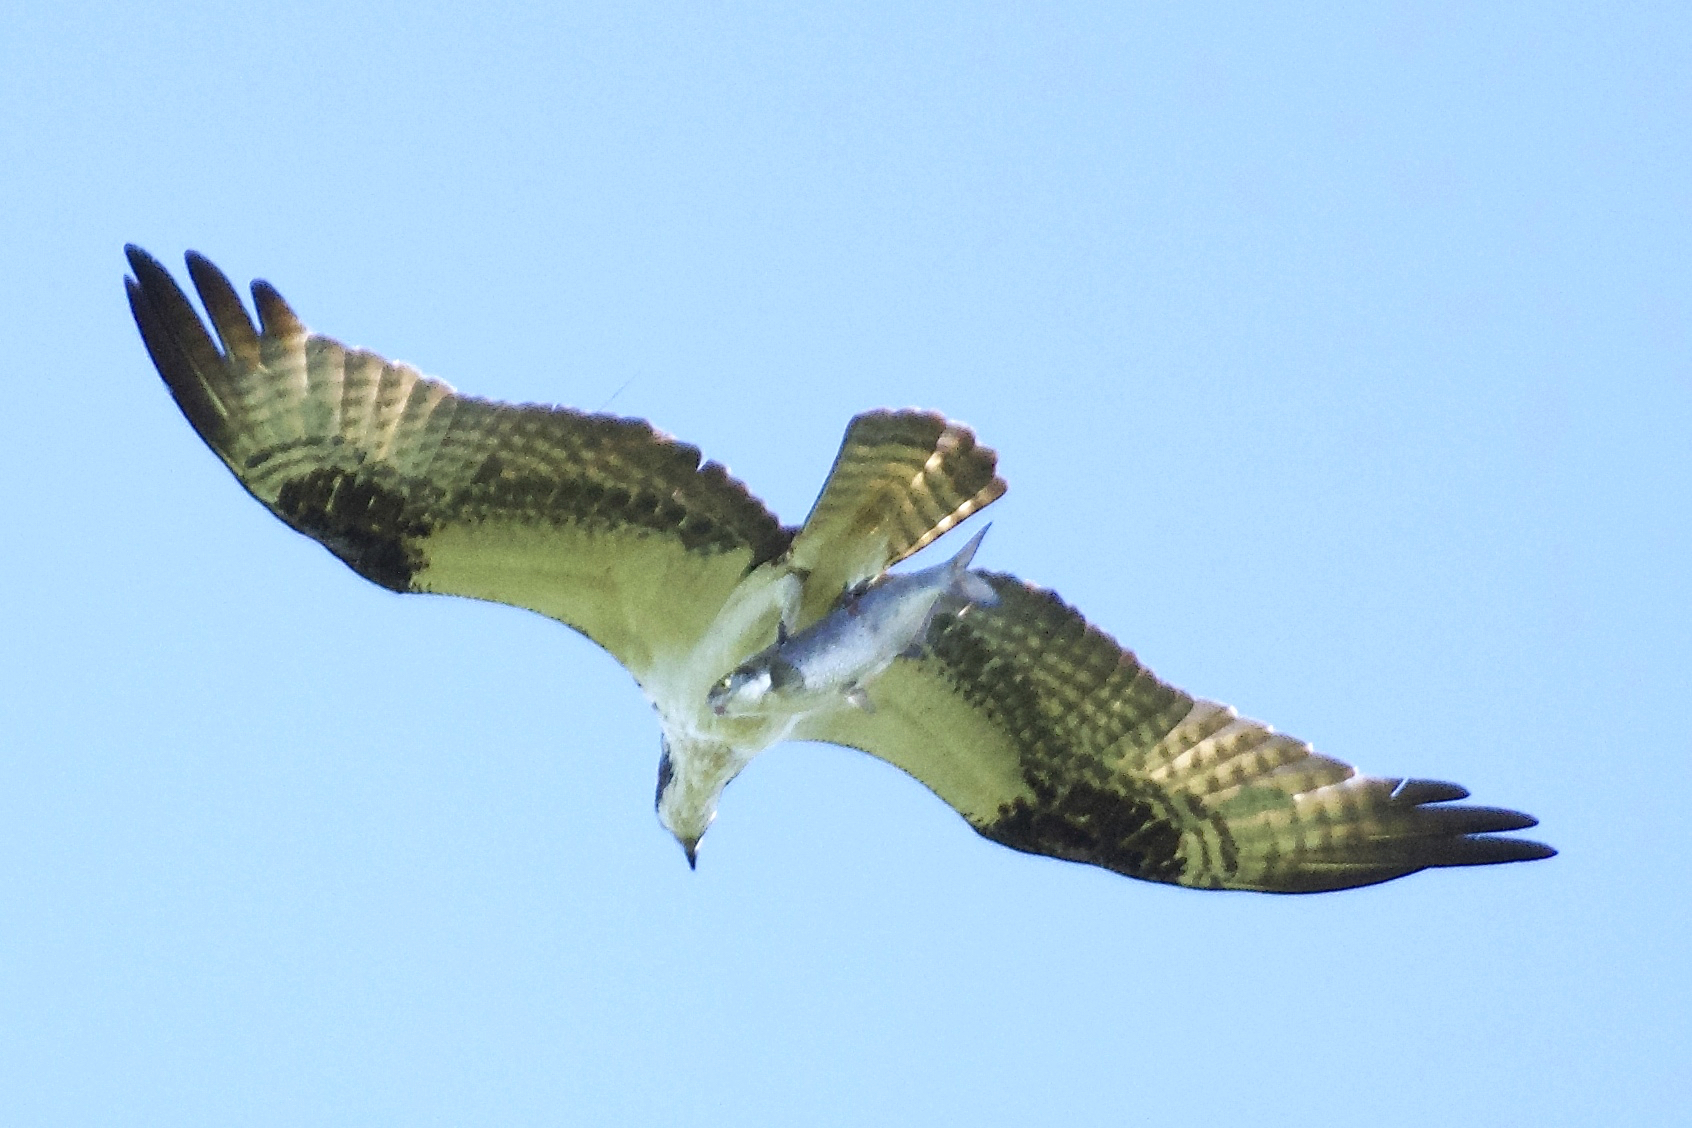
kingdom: Animalia
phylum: Chordata
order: Clupeiformes
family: Clupeidae
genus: Dorosoma
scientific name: Dorosoma cepedianum
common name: Gizzard shad
